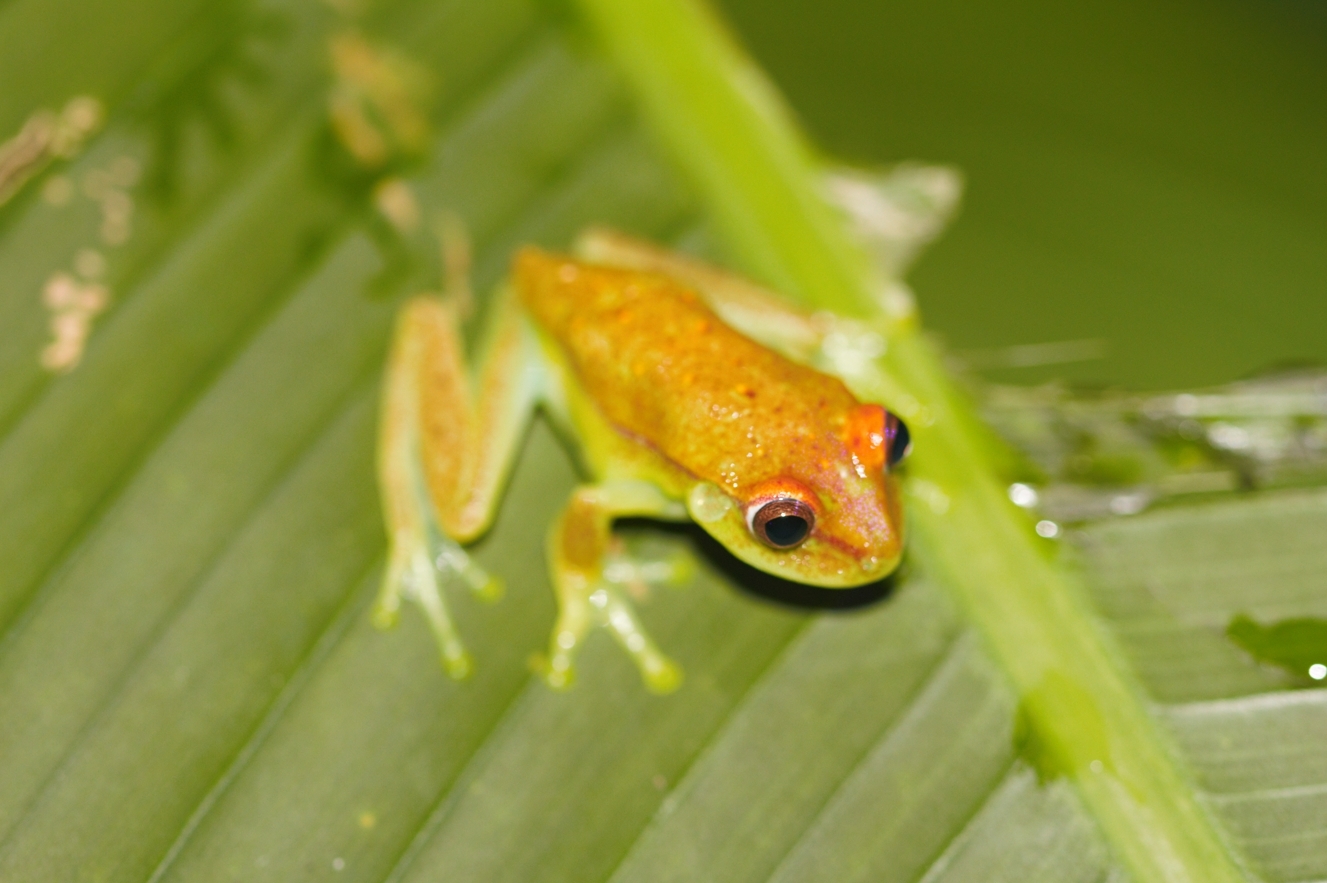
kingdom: Animalia
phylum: Chordata
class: Amphibia
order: Anura
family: Hylidae
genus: Boana
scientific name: Boana punctata
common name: Polka-dot treefrog
